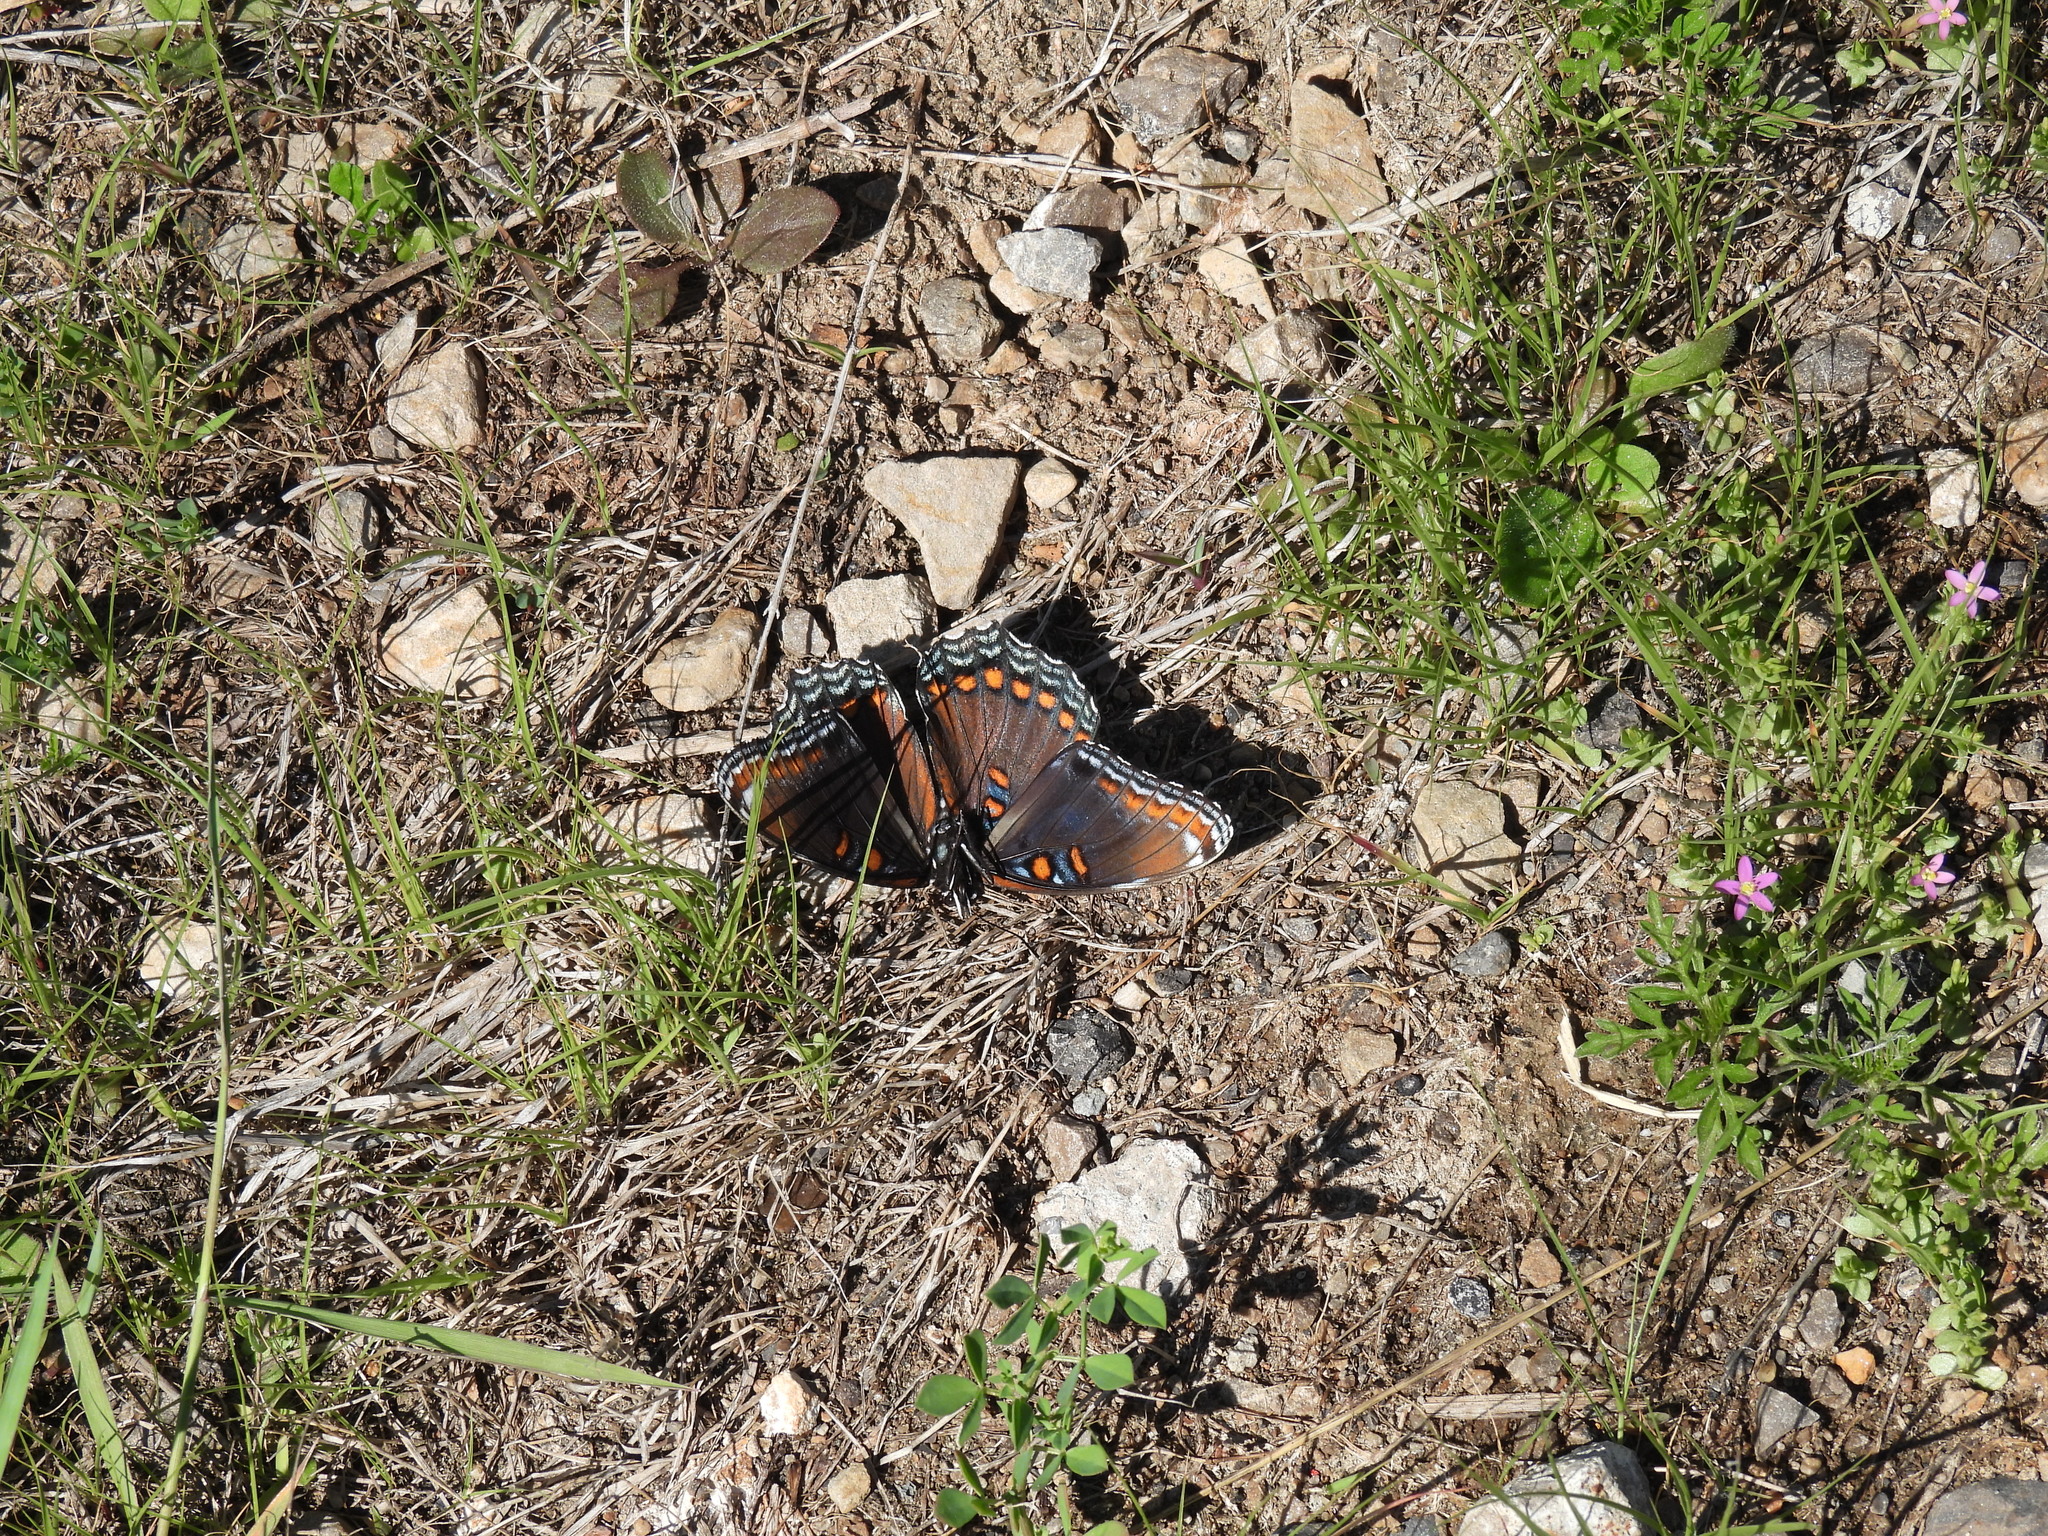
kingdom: Animalia
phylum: Arthropoda
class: Insecta
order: Lepidoptera
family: Nymphalidae
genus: Limenitis
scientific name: Limenitis astyanax
